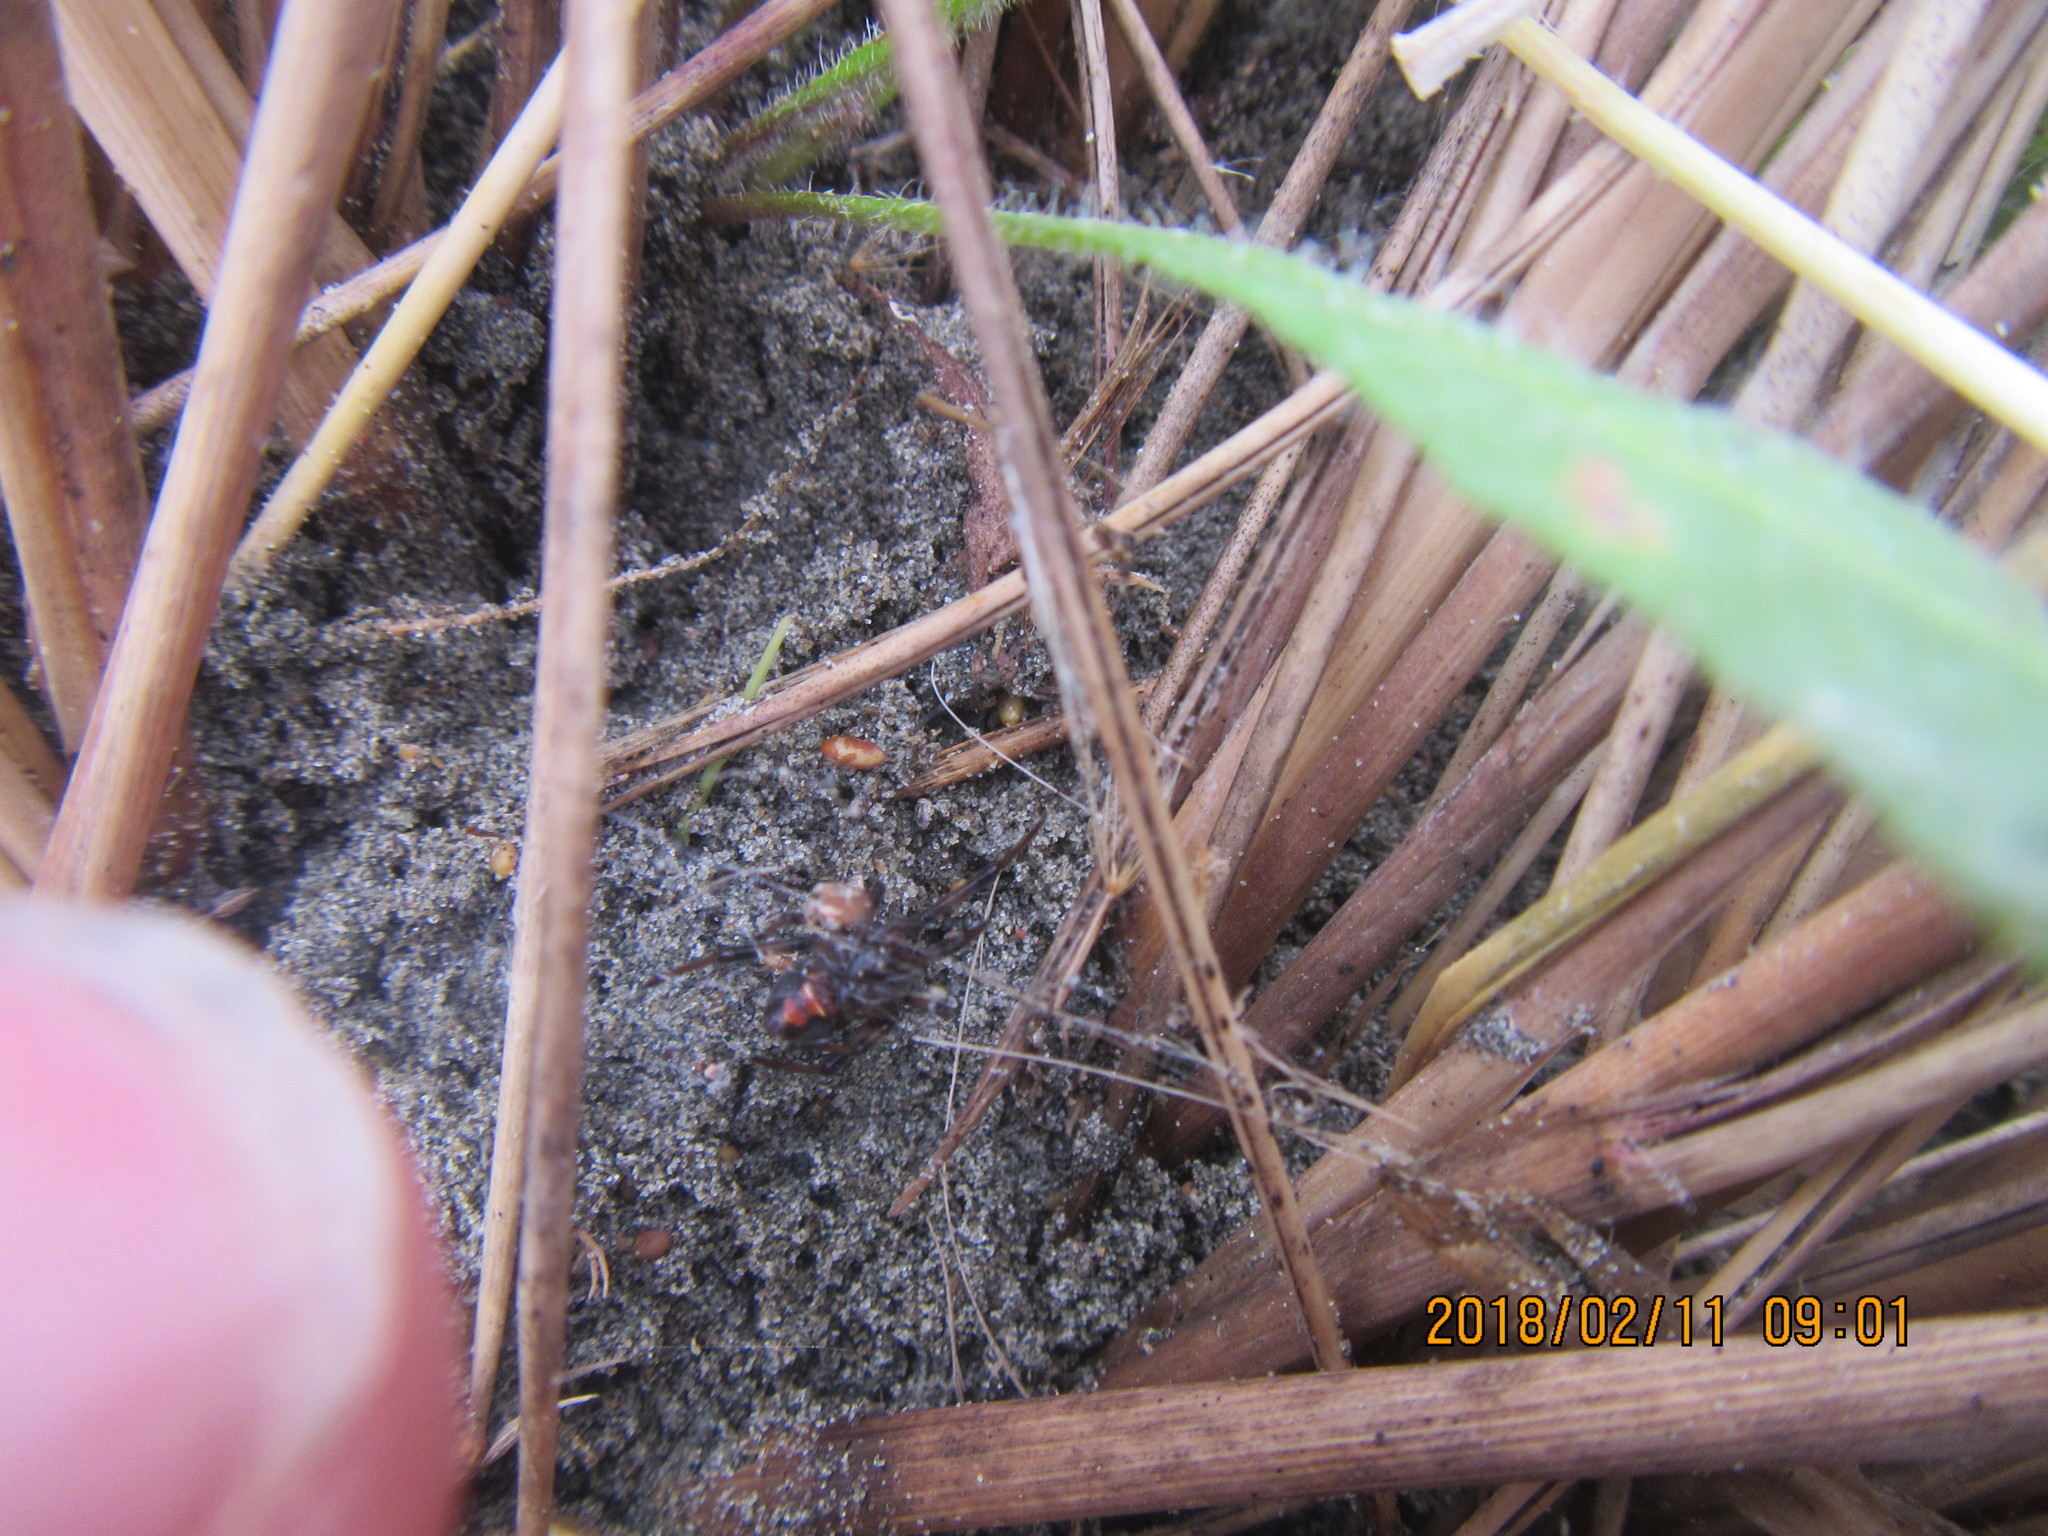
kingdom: Animalia
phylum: Arthropoda
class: Arachnida
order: Araneae
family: Thomisidae
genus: Sidymella
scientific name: Sidymella trapezia
